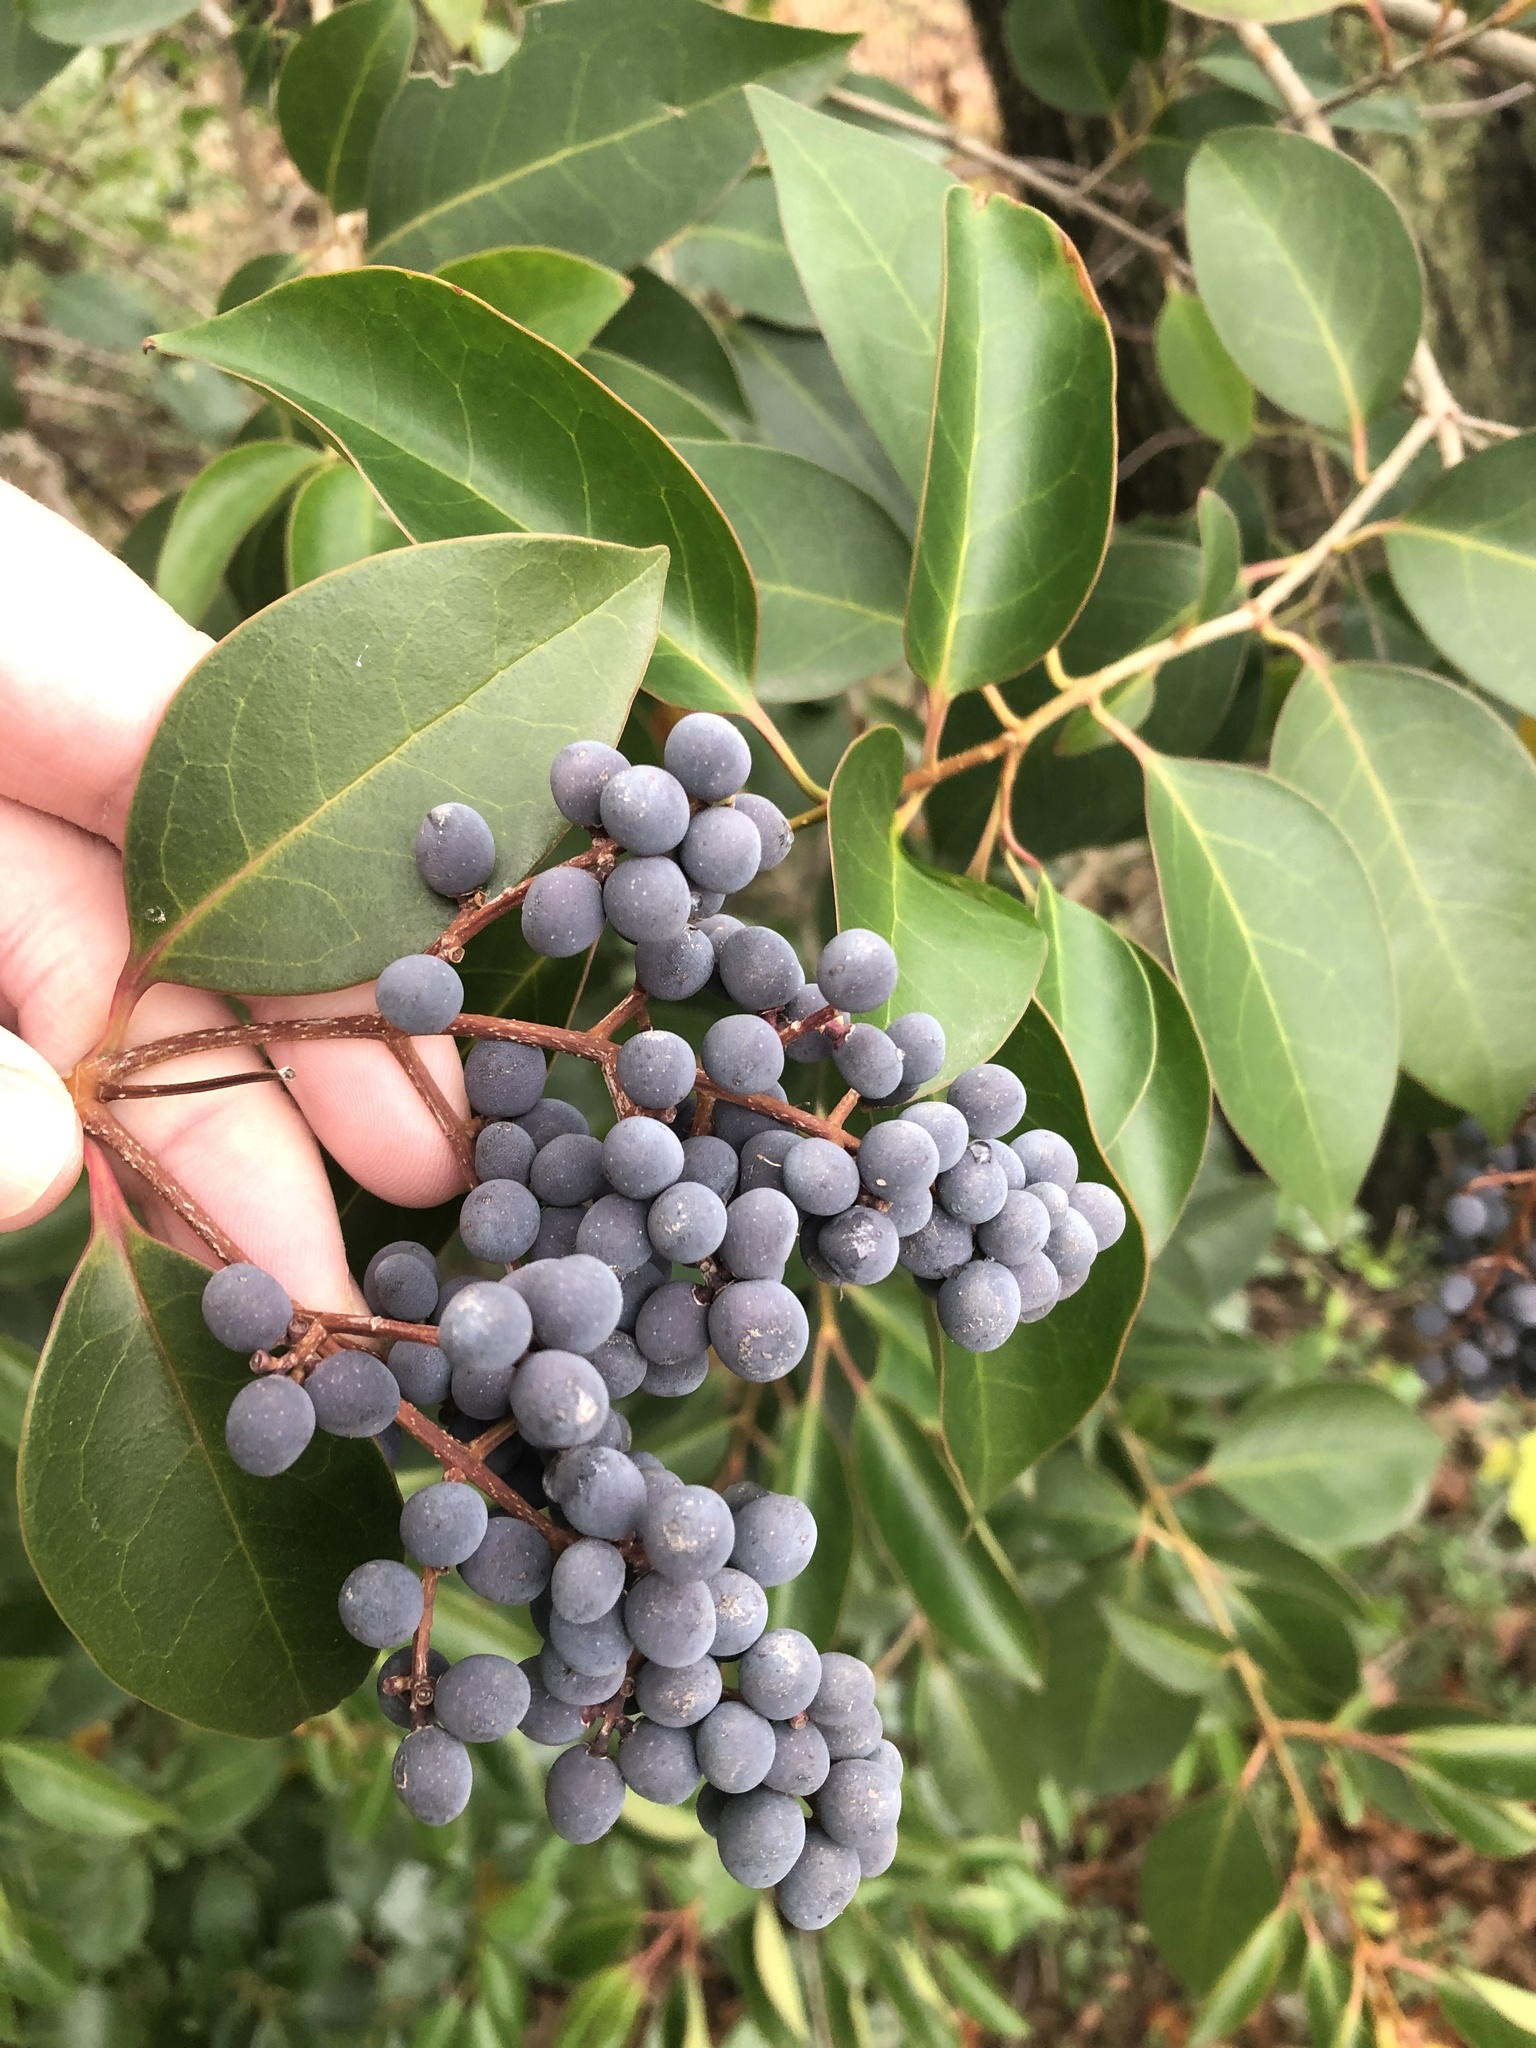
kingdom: Plantae
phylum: Tracheophyta
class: Magnoliopsida
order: Lamiales
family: Oleaceae
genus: Ligustrum
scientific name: Ligustrum lucidum
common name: Glossy privet
